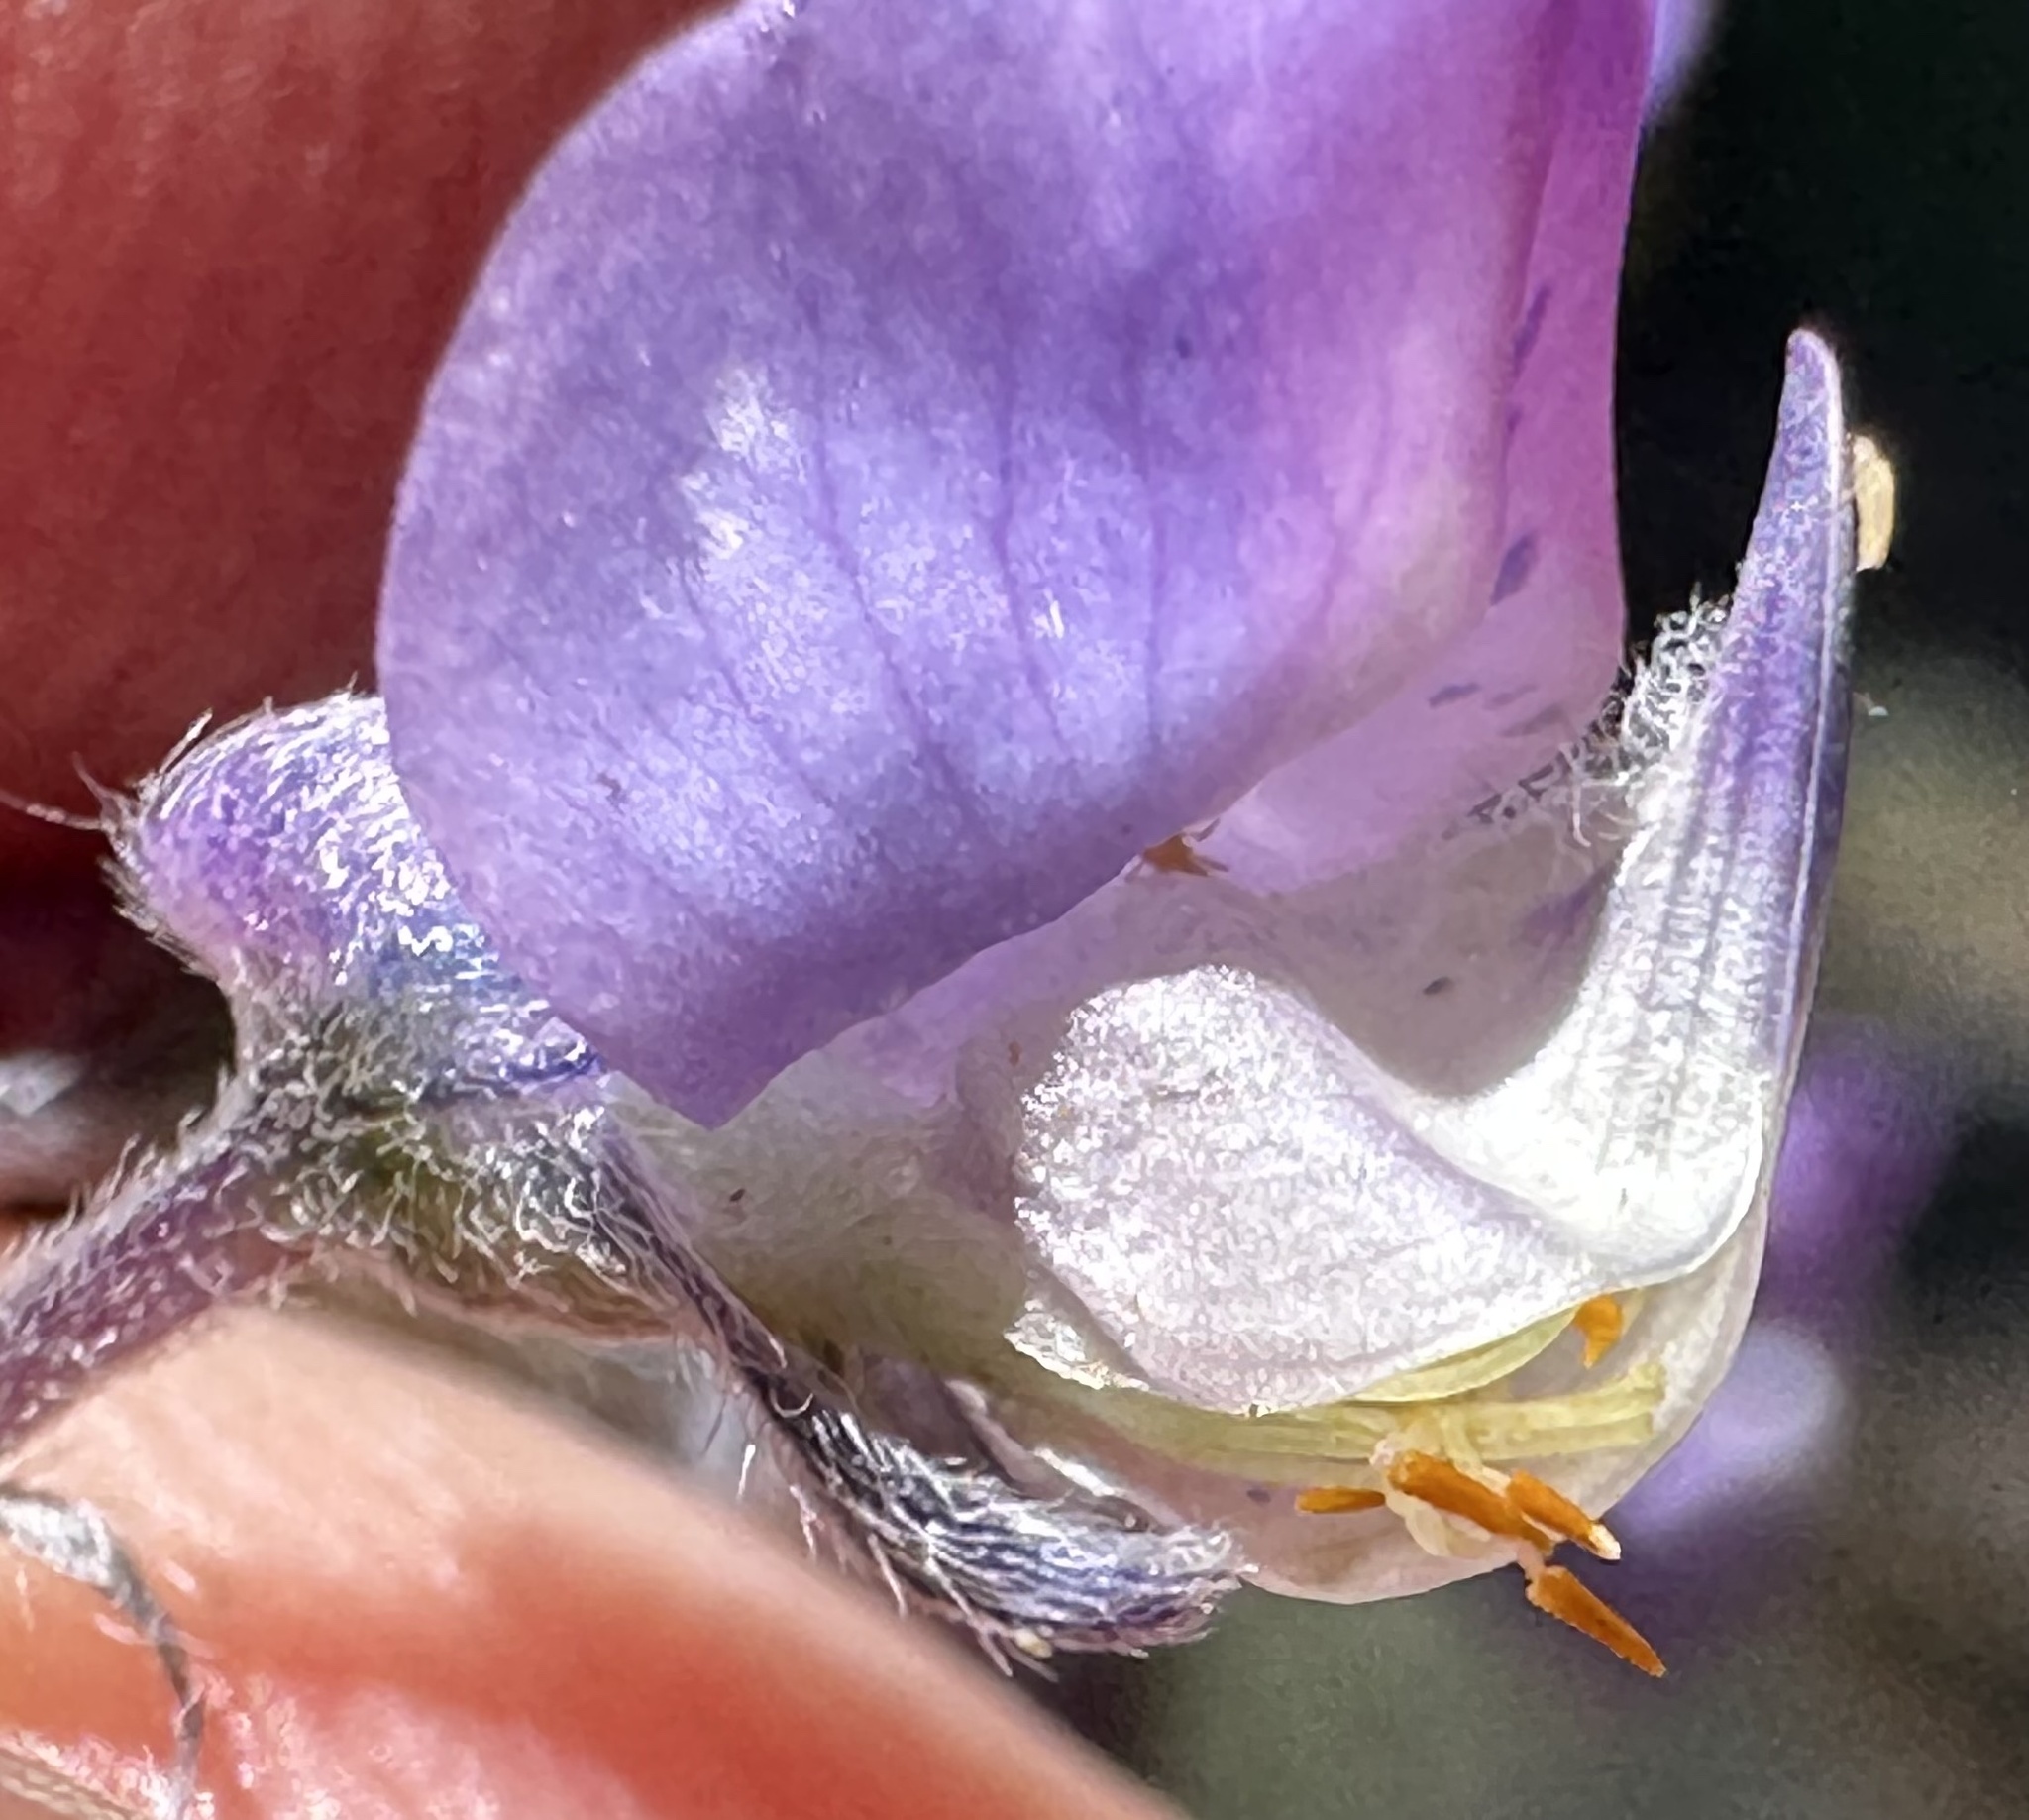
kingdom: Plantae
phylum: Tracheophyta
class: Magnoliopsida
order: Fabales
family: Fabaceae
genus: Lupinus
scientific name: Lupinus arbustus
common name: Montana lupine
